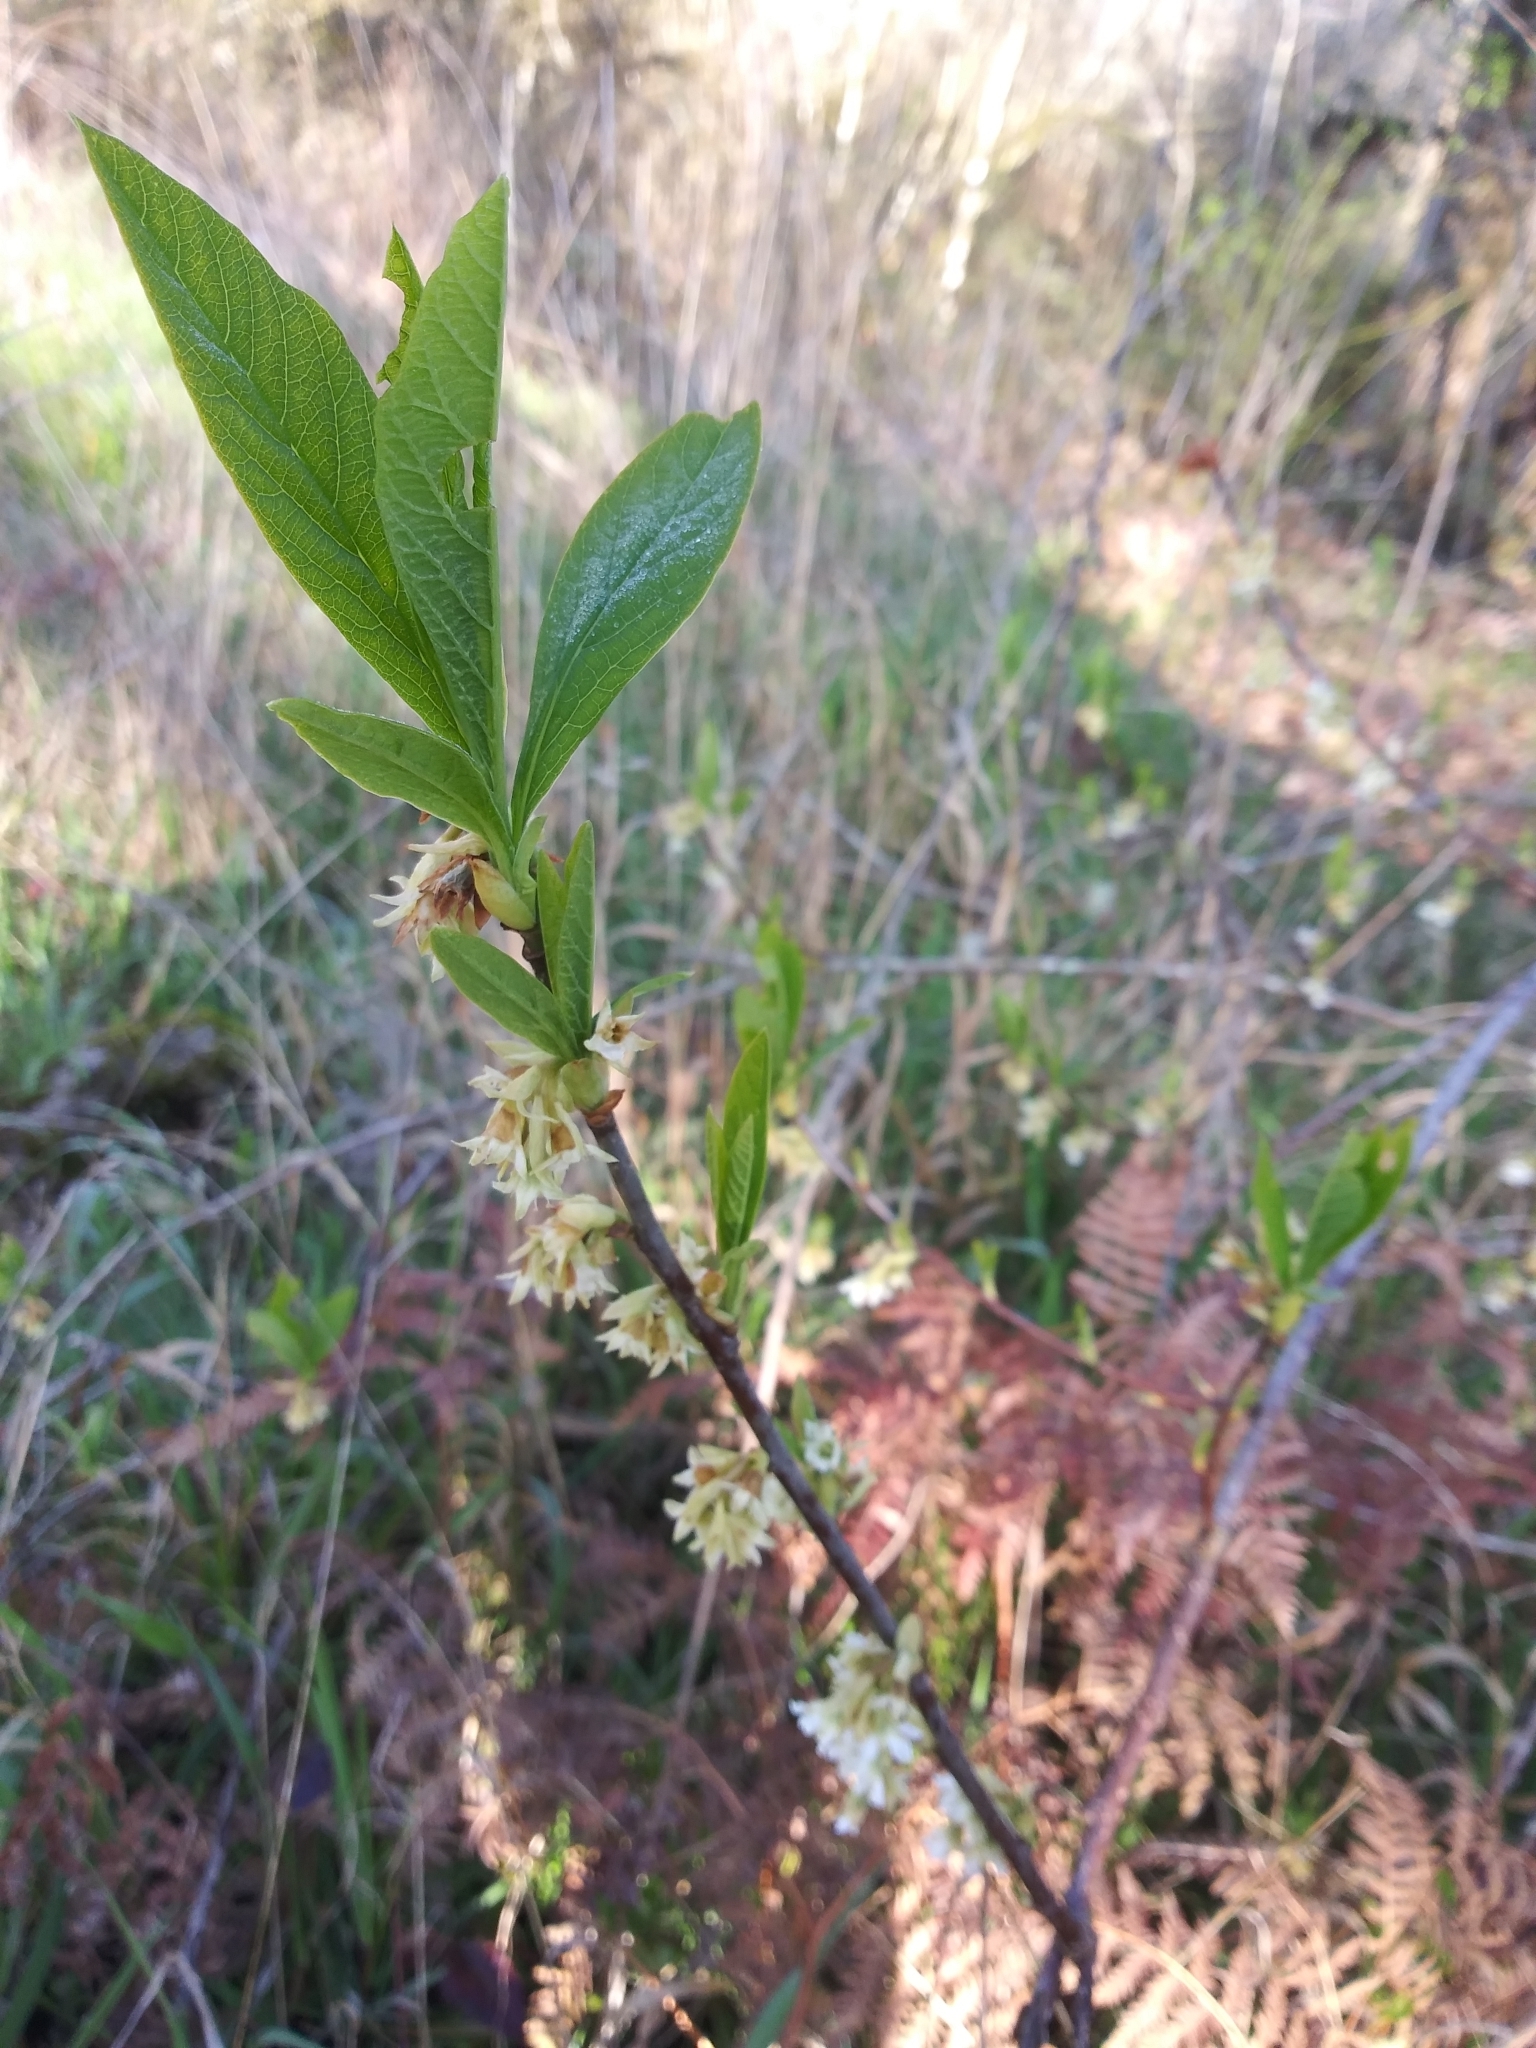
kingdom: Plantae
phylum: Tracheophyta
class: Magnoliopsida
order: Rosales
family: Rosaceae
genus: Oemleria
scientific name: Oemleria cerasiformis
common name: Osoberry
